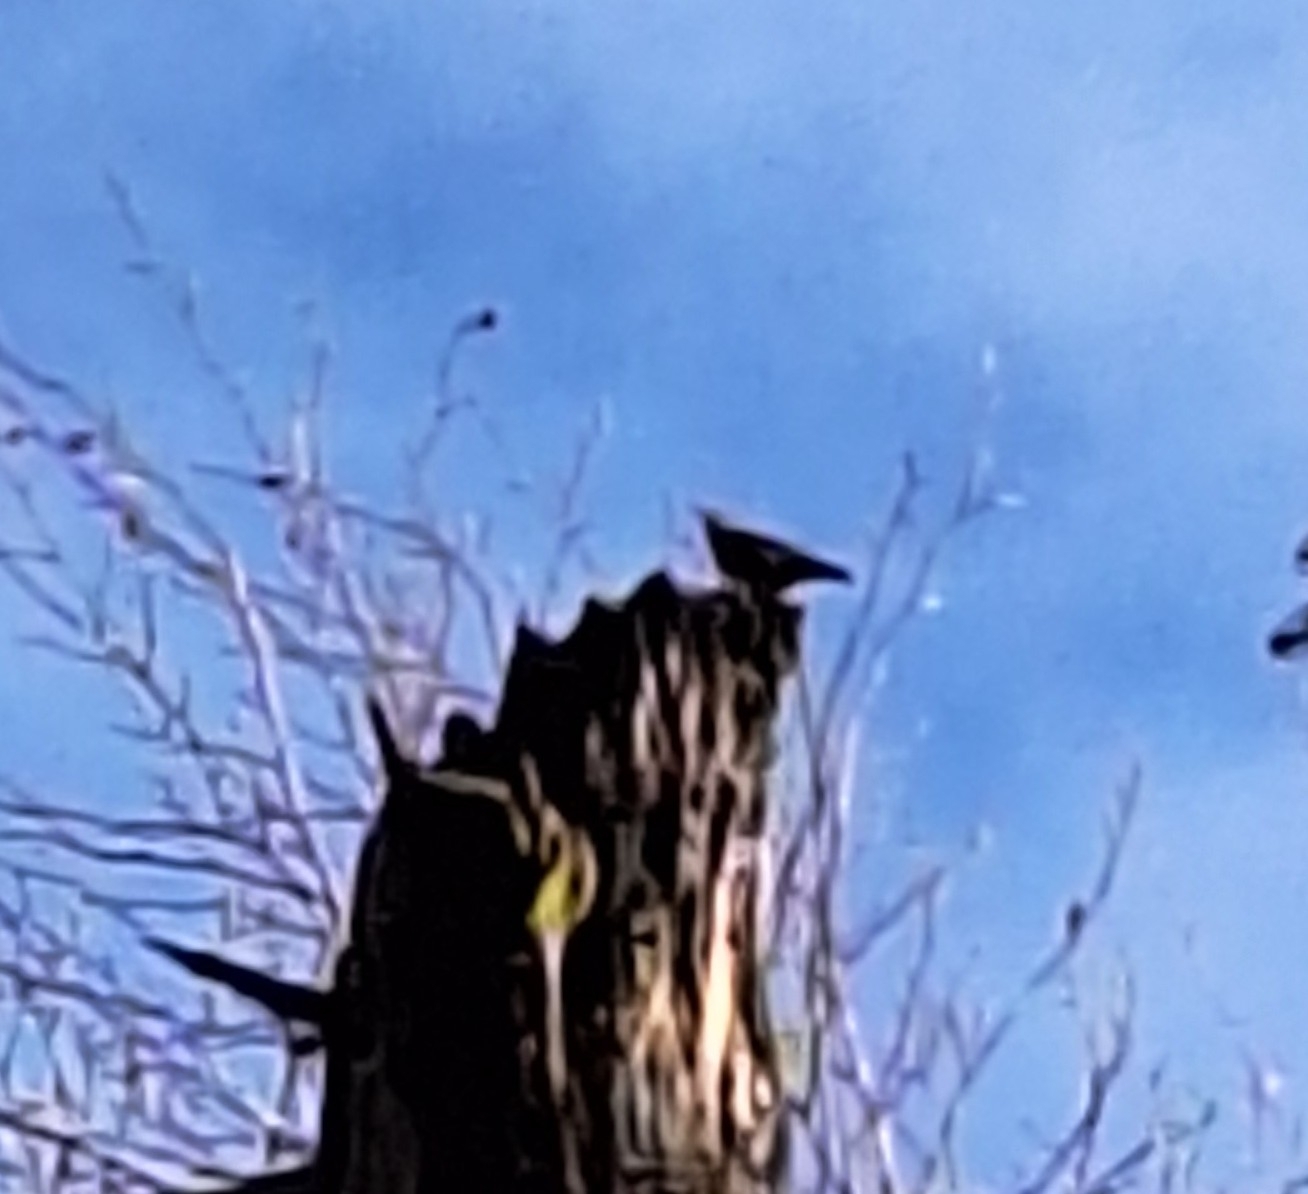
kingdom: Animalia
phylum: Chordata
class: Aves
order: Passeriformes
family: Sittidae
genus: Sitta
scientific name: Sitta europaea
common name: Eurasian nuthatch
